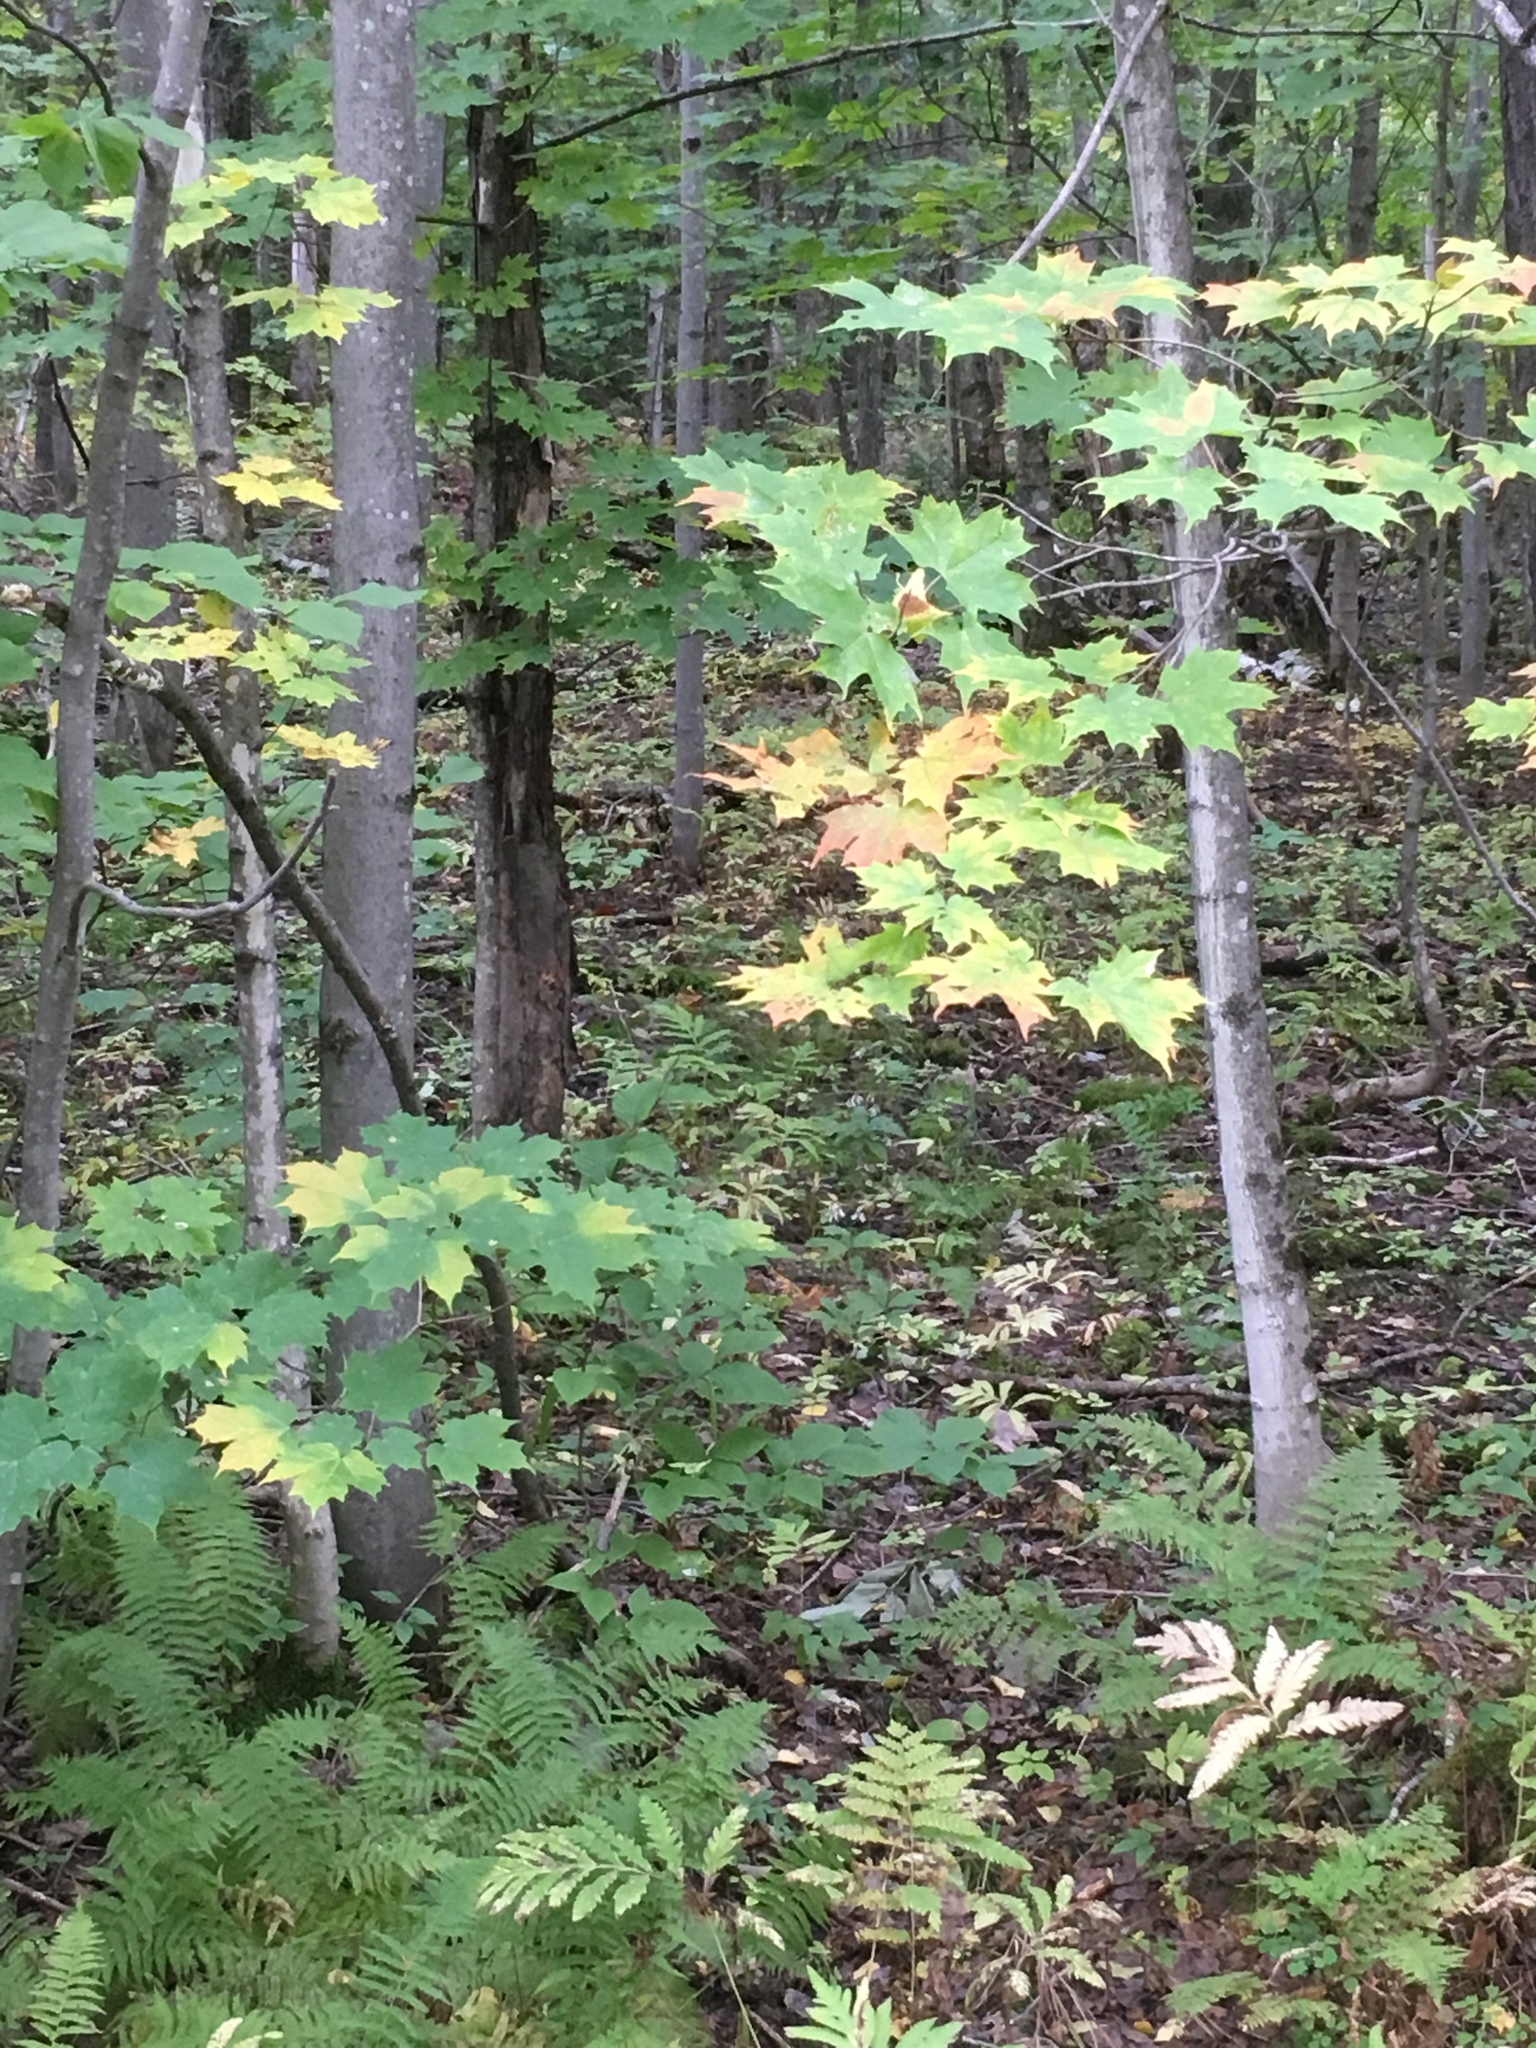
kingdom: Plantae
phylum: Tracheophyta
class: Magnoliopsida
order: Sapindales
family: Sapindaceae
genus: Acer
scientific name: Acer saccharum
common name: Sugar maple
